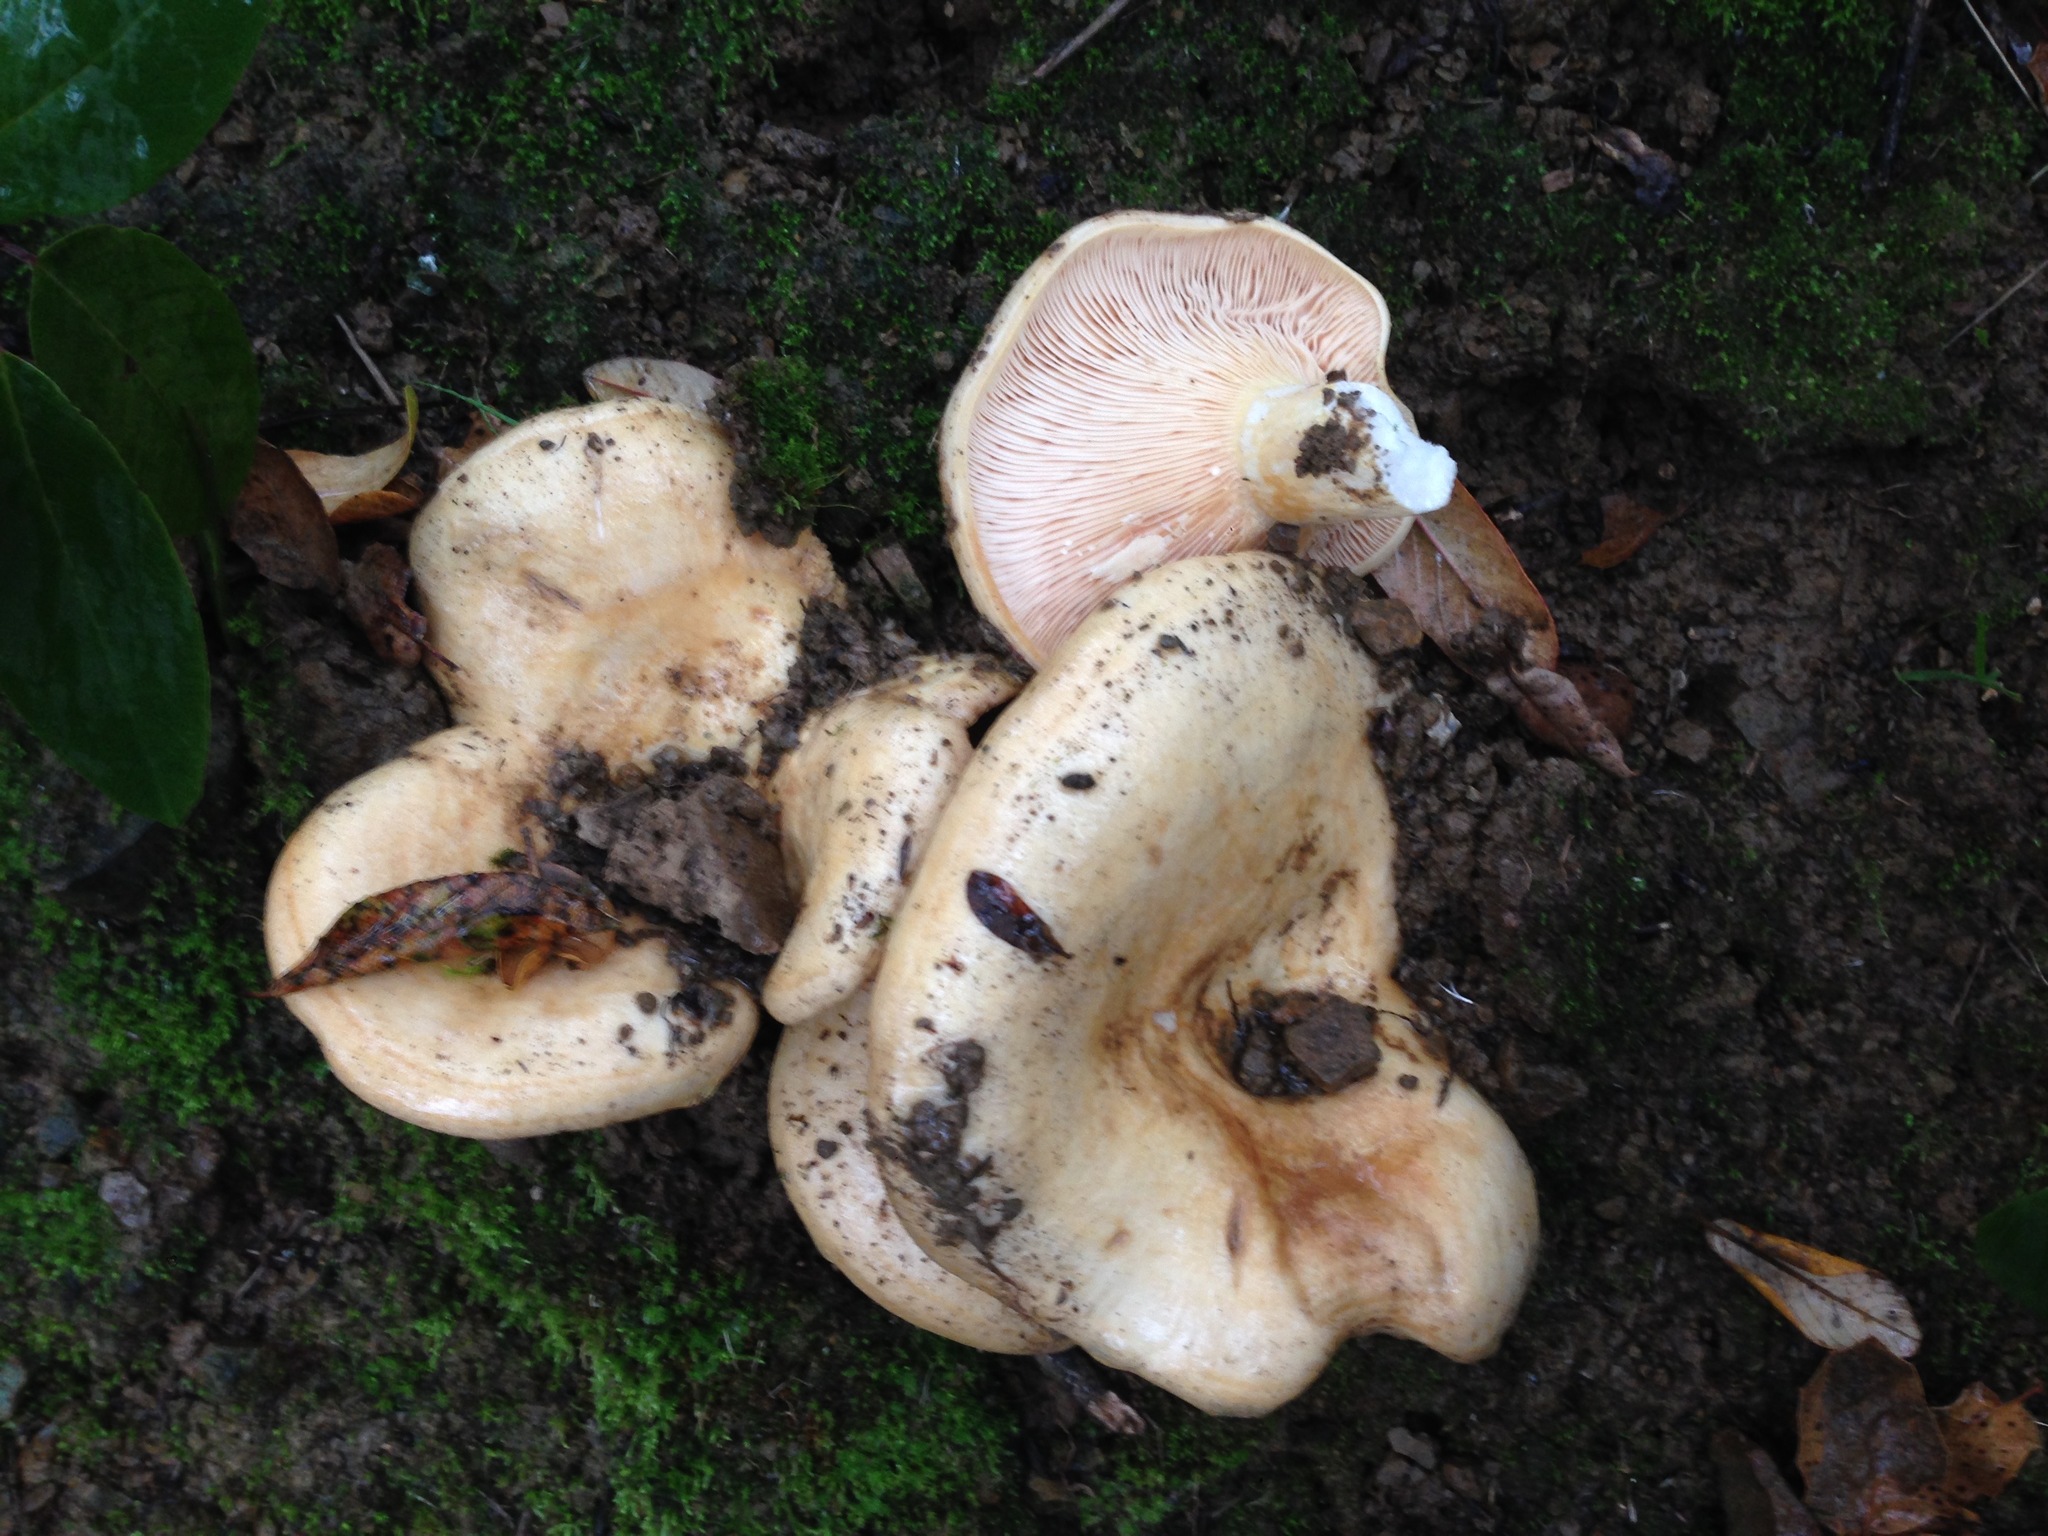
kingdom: Fungi
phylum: Basidiomycota
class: Agaricomycetes
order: Russulales
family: Russulaceae
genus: Lactarius
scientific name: Lactarius alnicola
